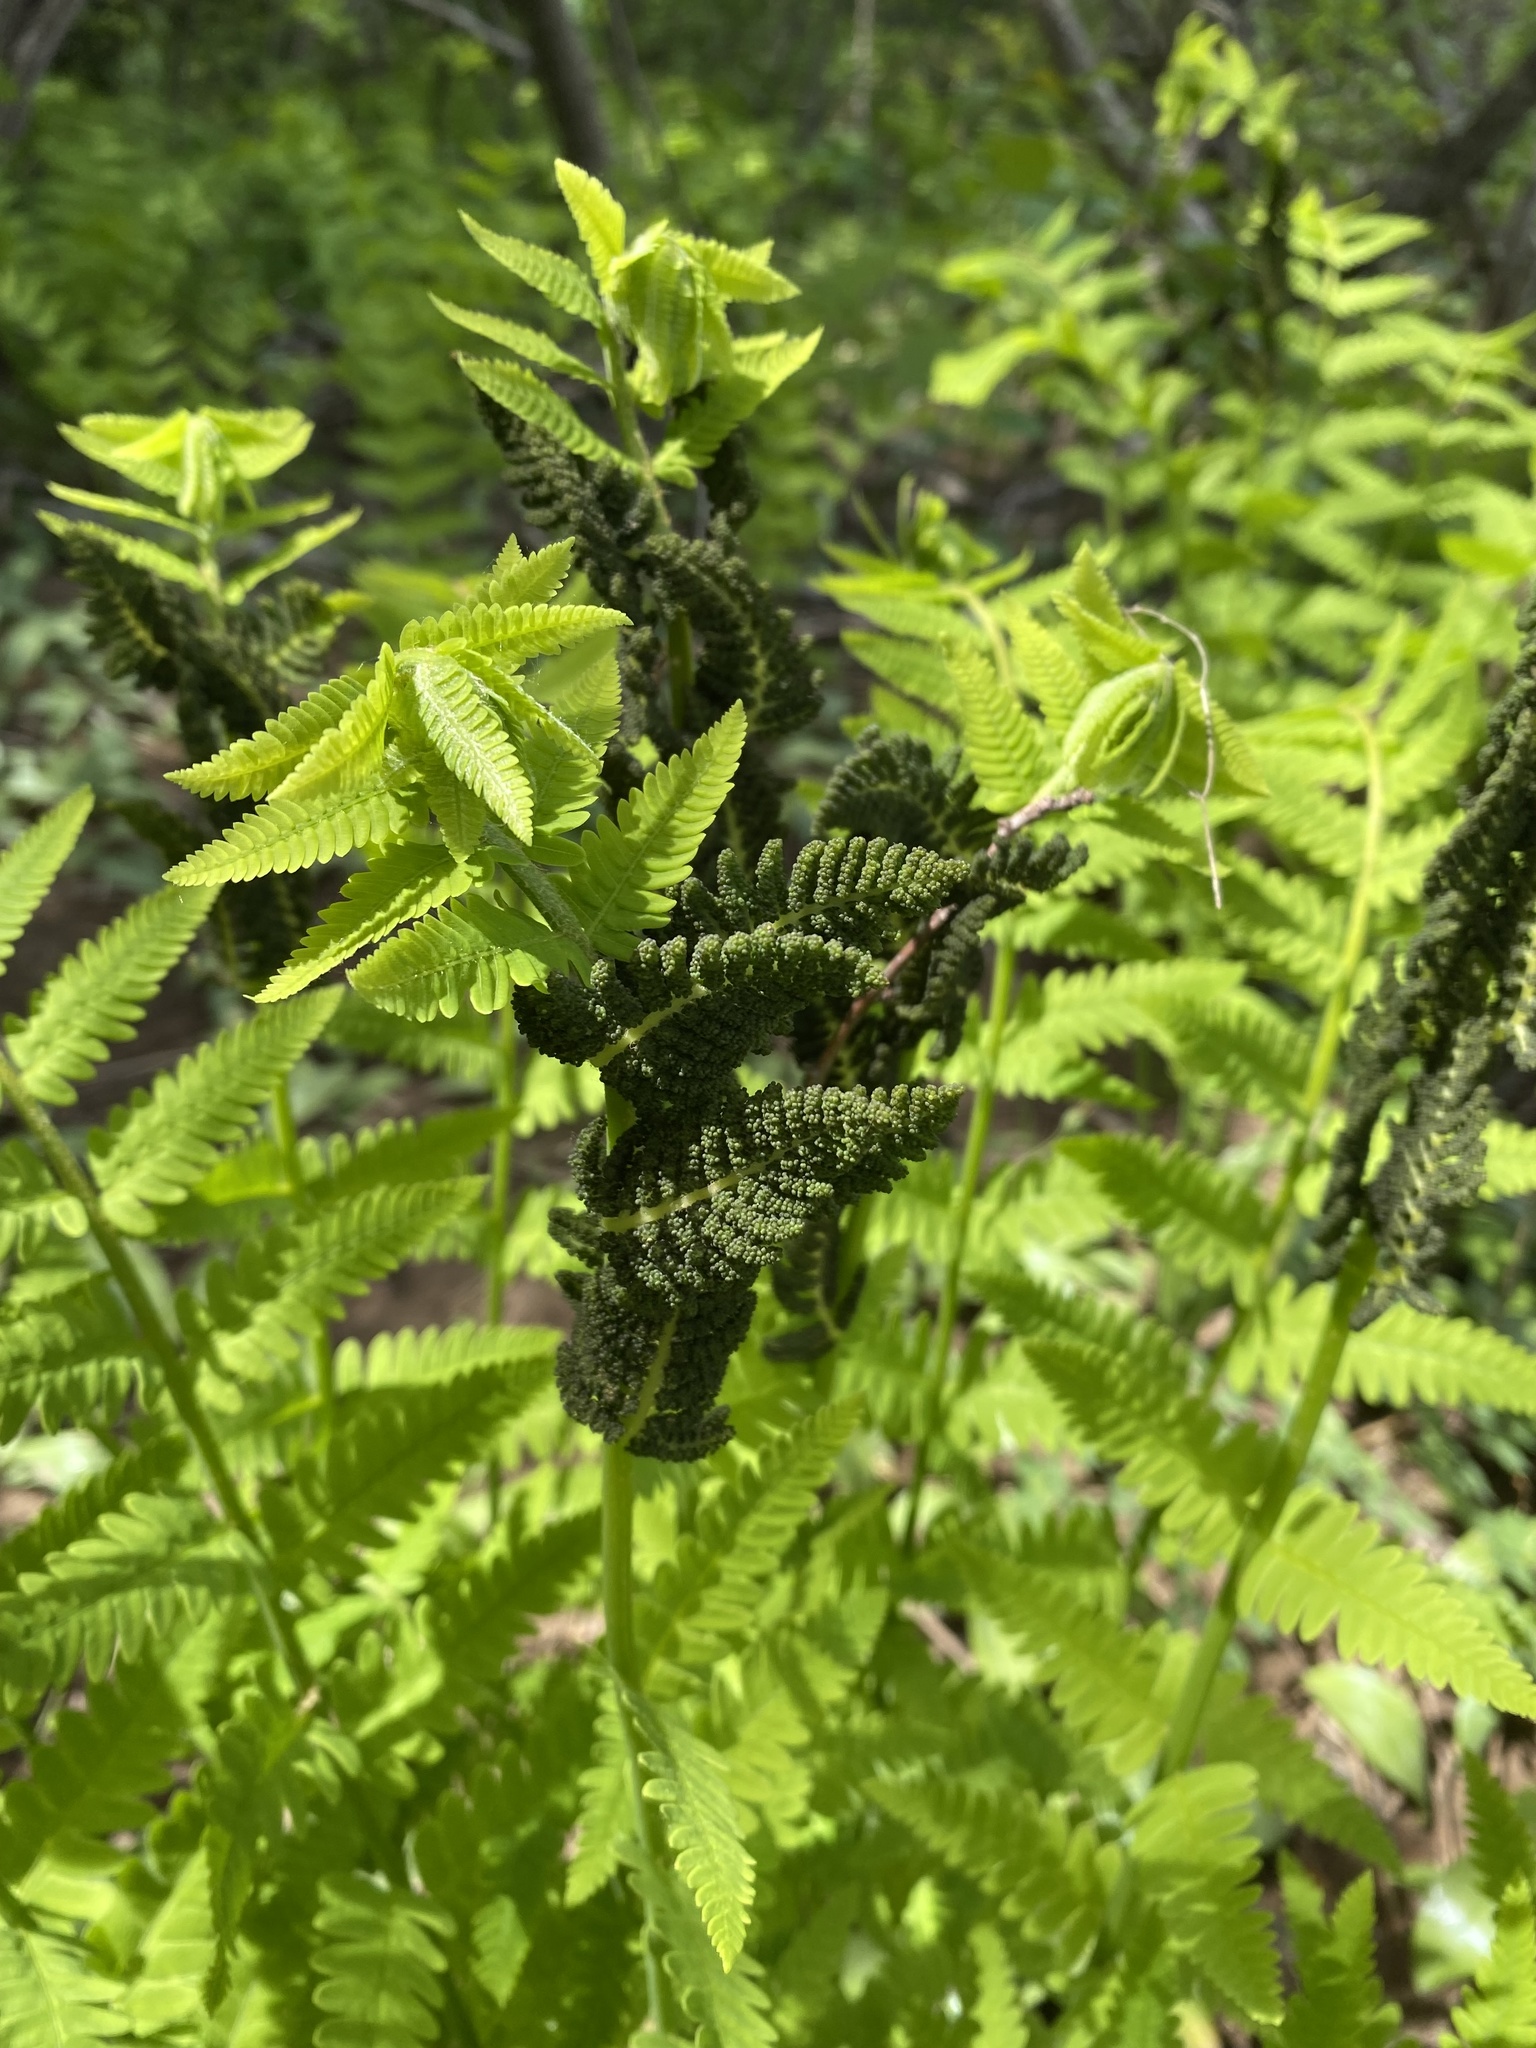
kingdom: Plantae
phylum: Tracheophyta
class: Polypodiopsida
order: Osmundales
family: Osmundaceae
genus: Claytosmunda
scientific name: Claytosmunda claytoniana
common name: Clayton's fern
